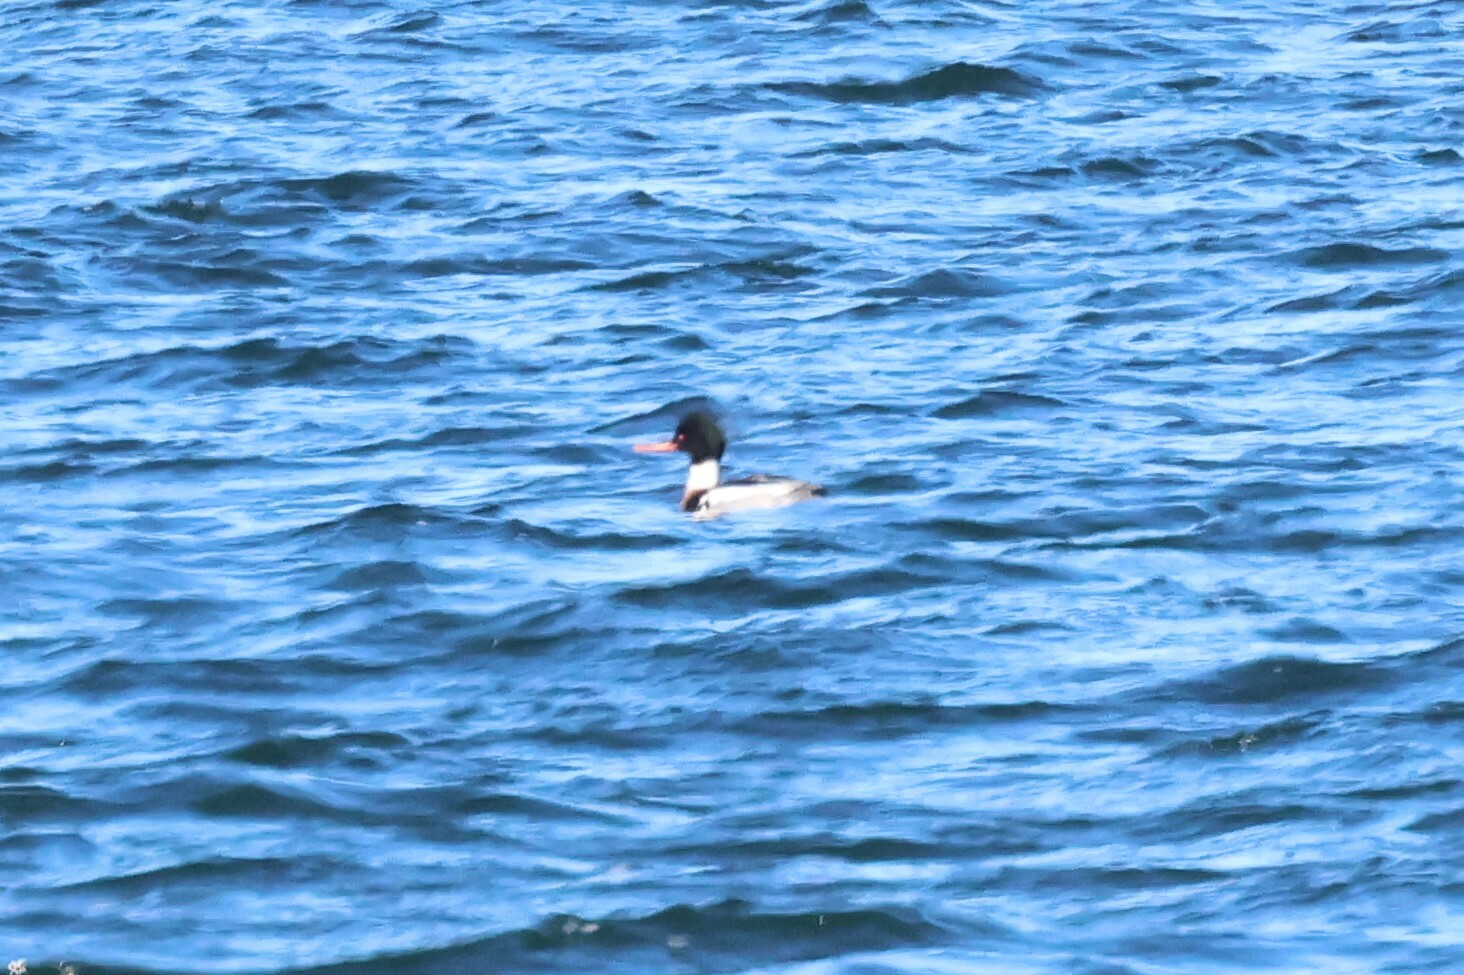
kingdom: Animalia
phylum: Chordata
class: Aves
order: Anseriformes
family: Anatidae
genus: Mergus
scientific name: Mergus serrator
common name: Red-breasted merganser
